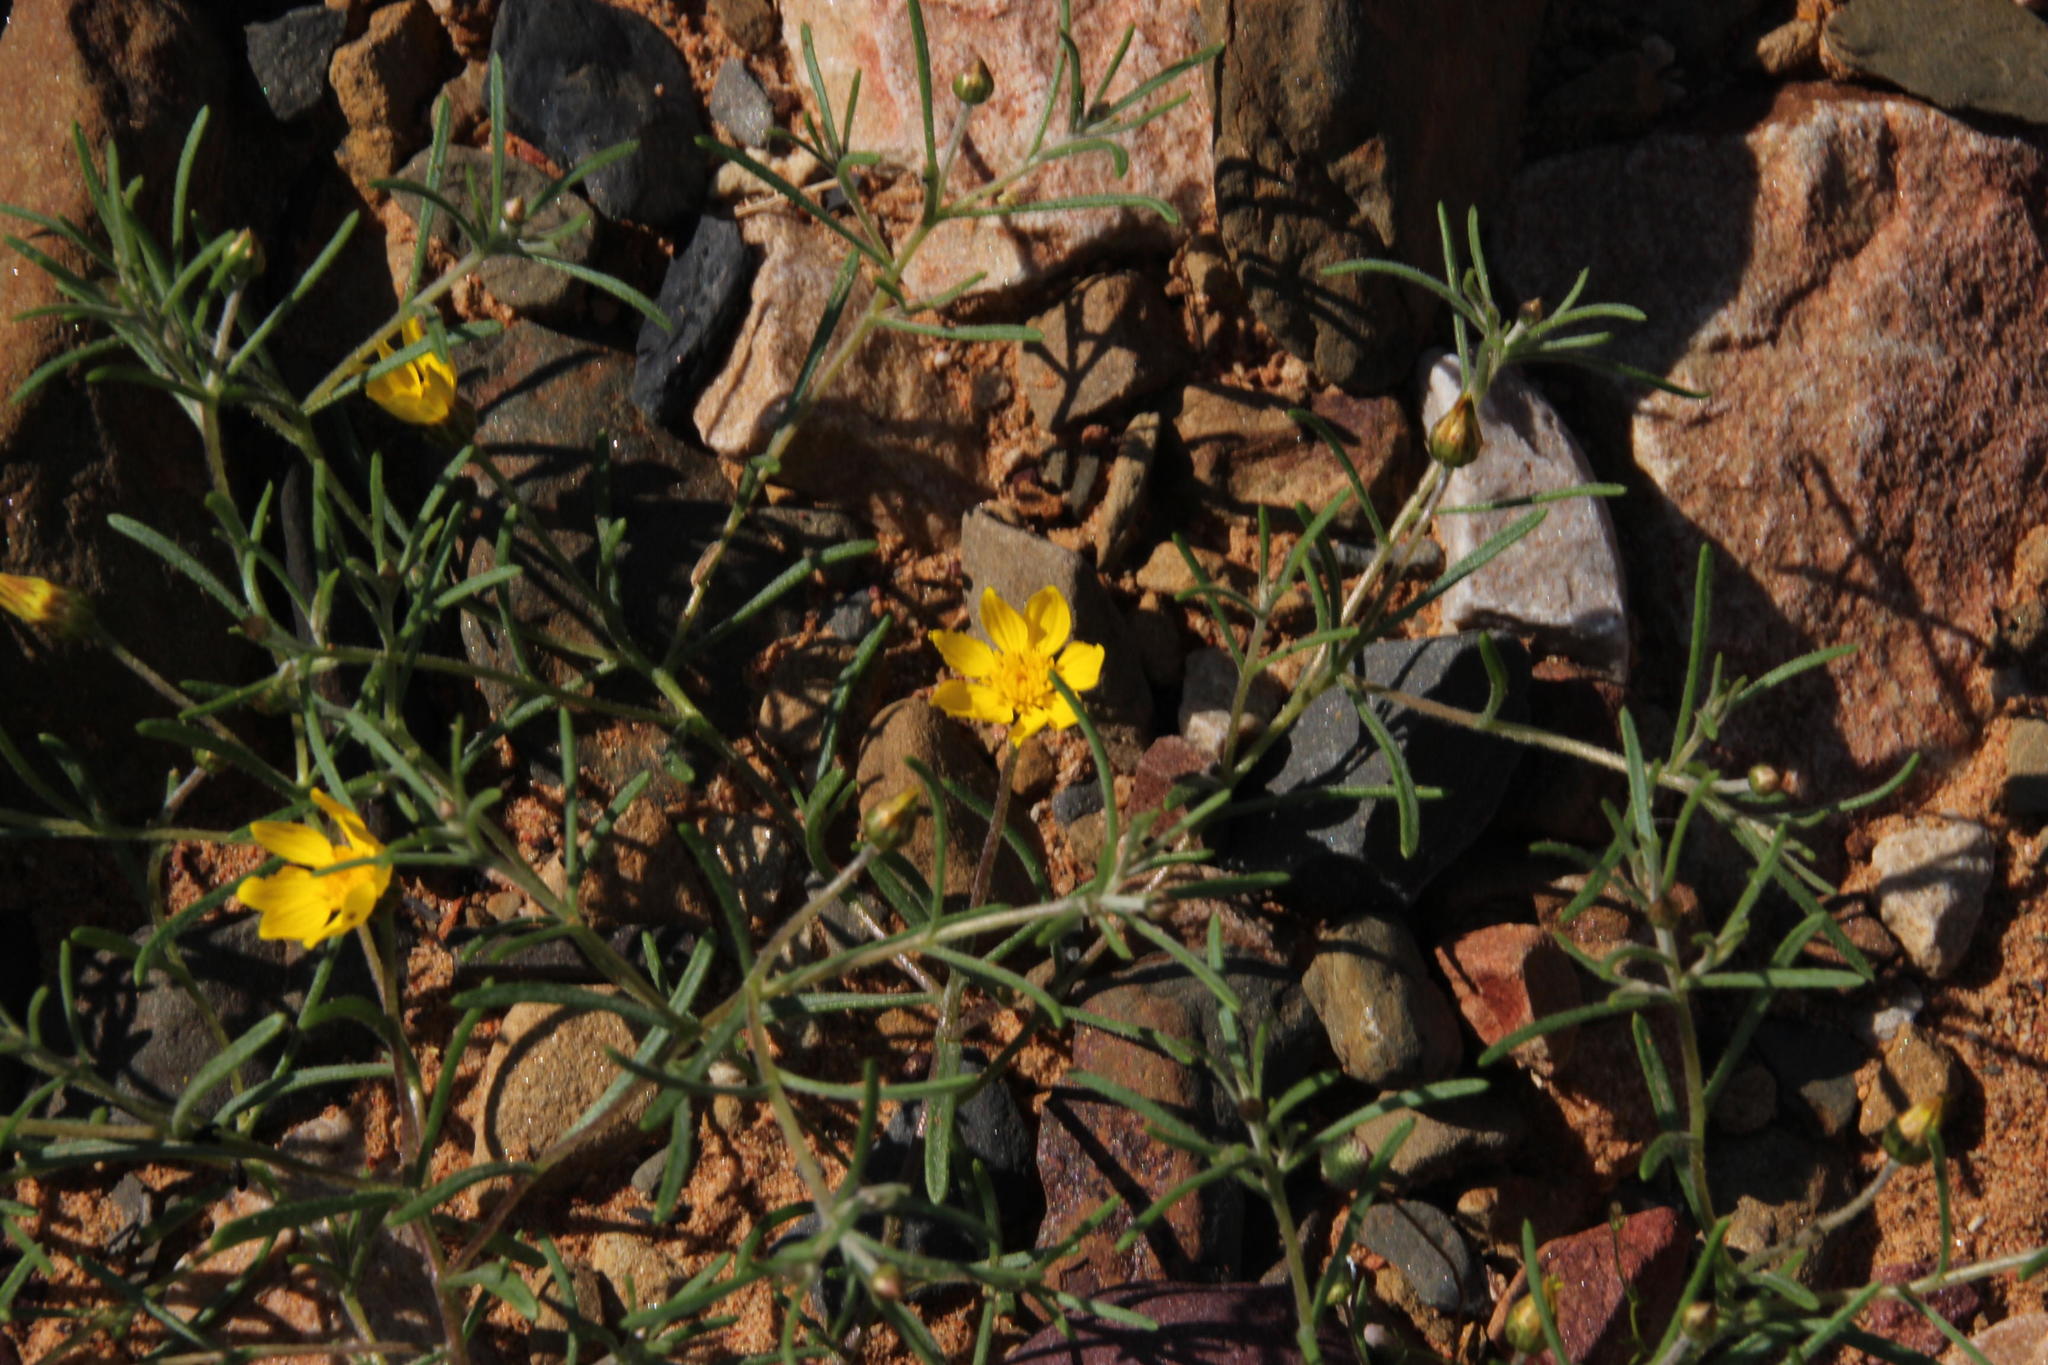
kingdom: Plantae
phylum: Tracheophyta
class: Magnoliopsida
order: Asterales
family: Asteraceae
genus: Rhynchopsidium
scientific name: Rhynchopsidium pumilum
